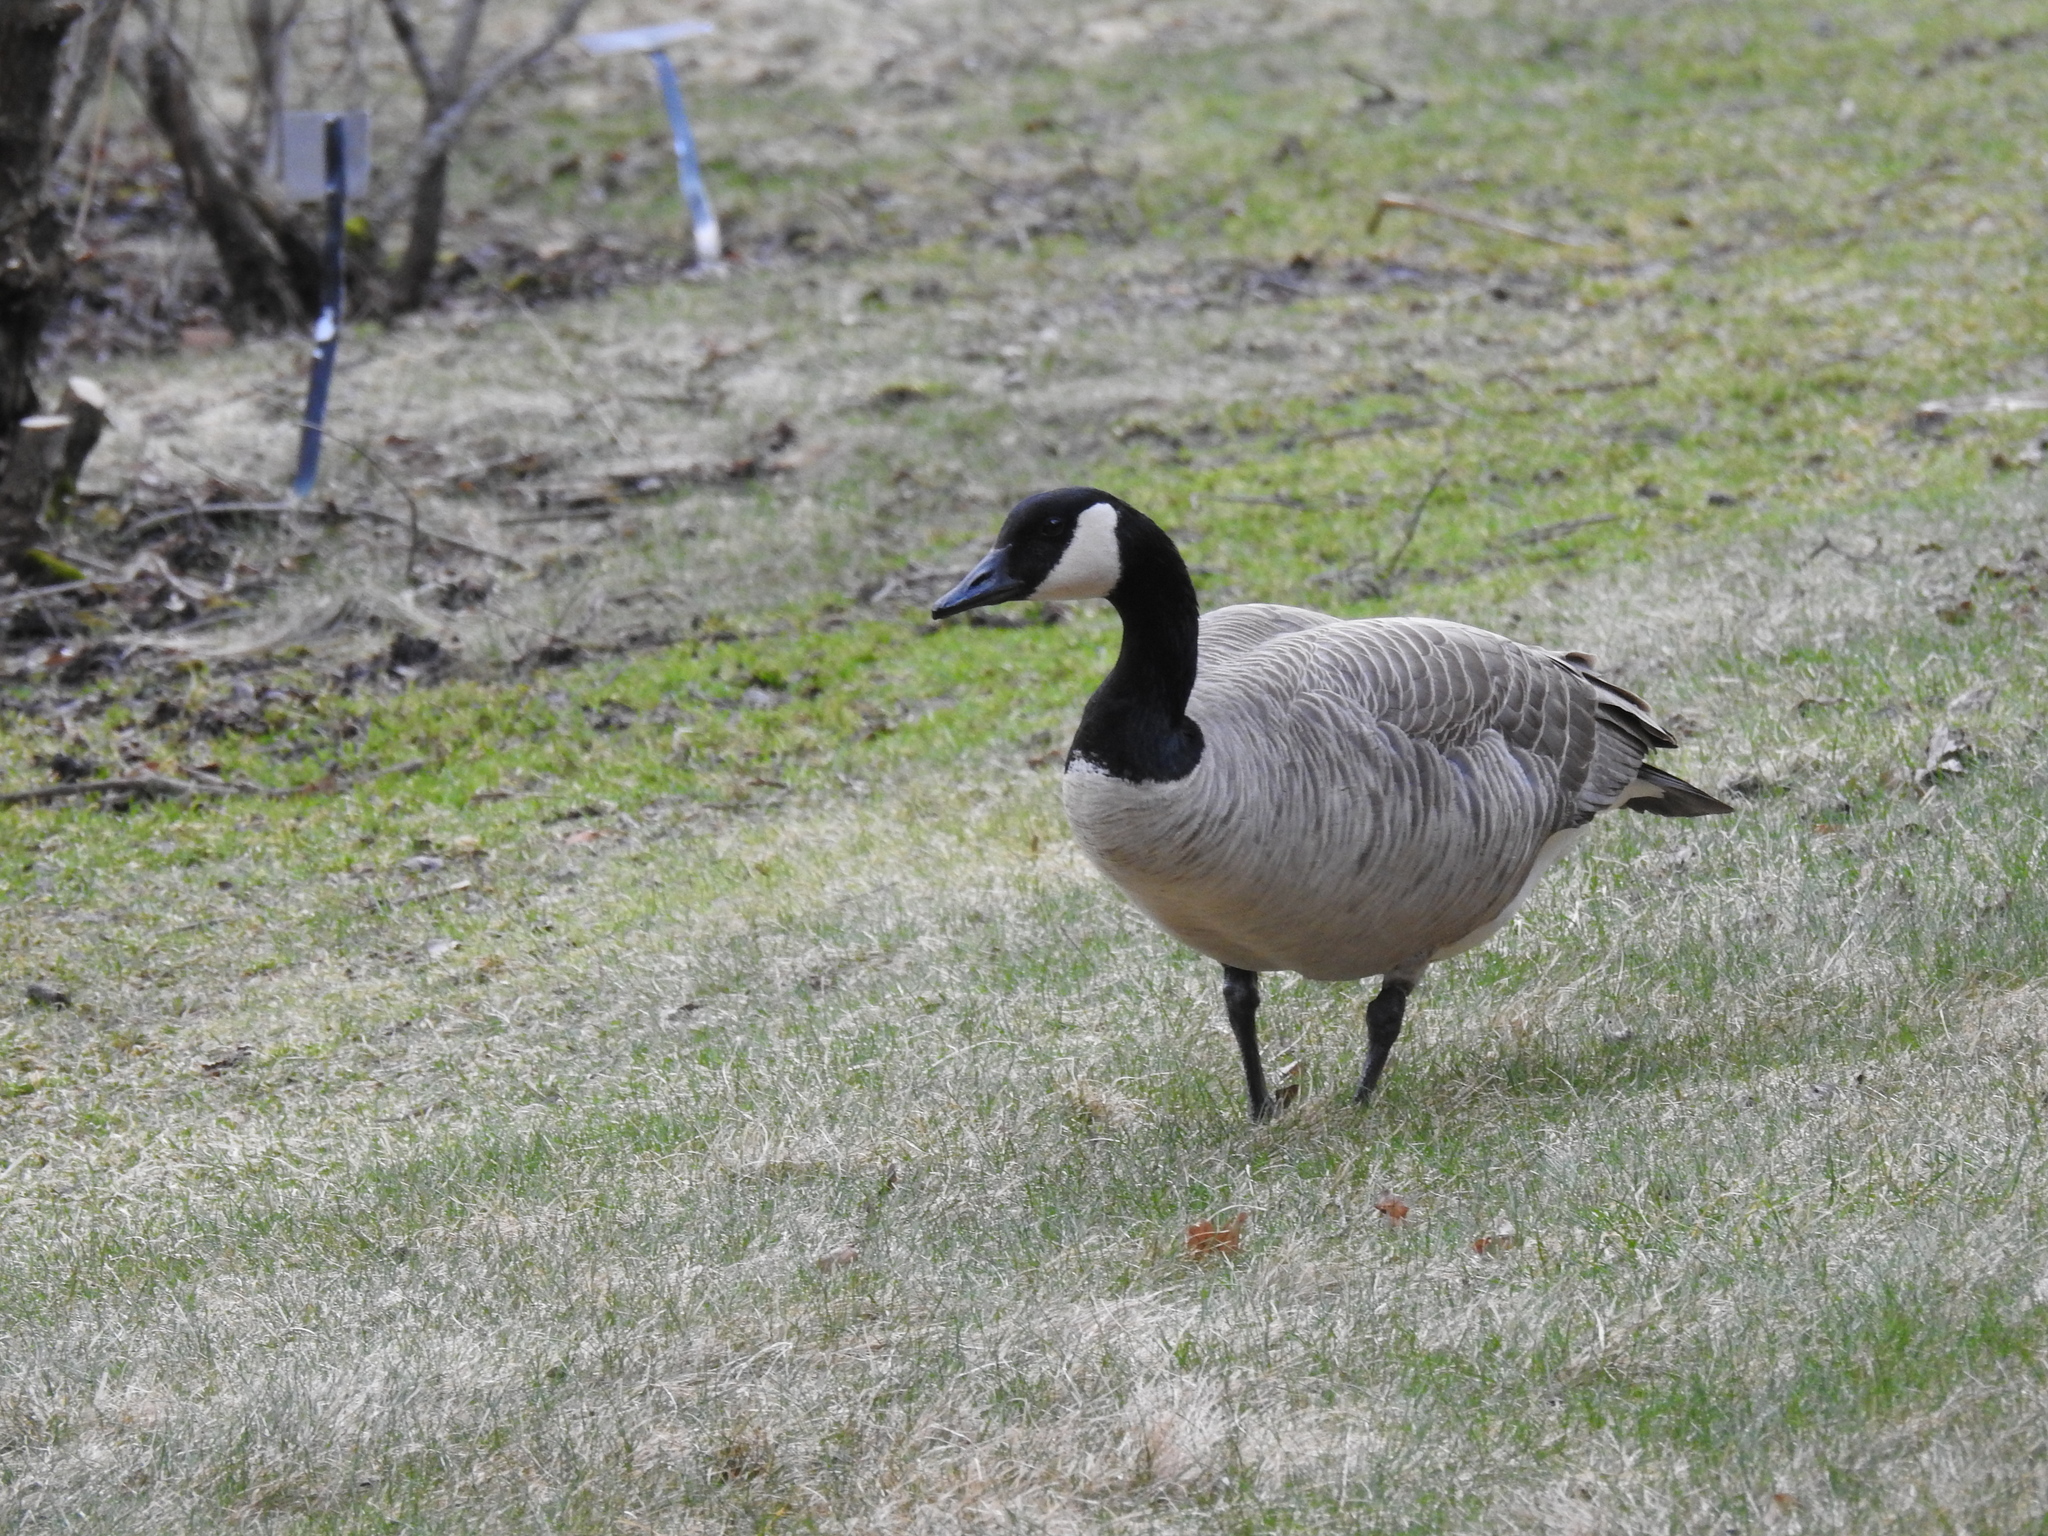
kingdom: Animalia
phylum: Chordata
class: Aves
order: Anseriformes
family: Anatidae
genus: Branta
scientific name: Branta canadensis
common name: Canada goose
